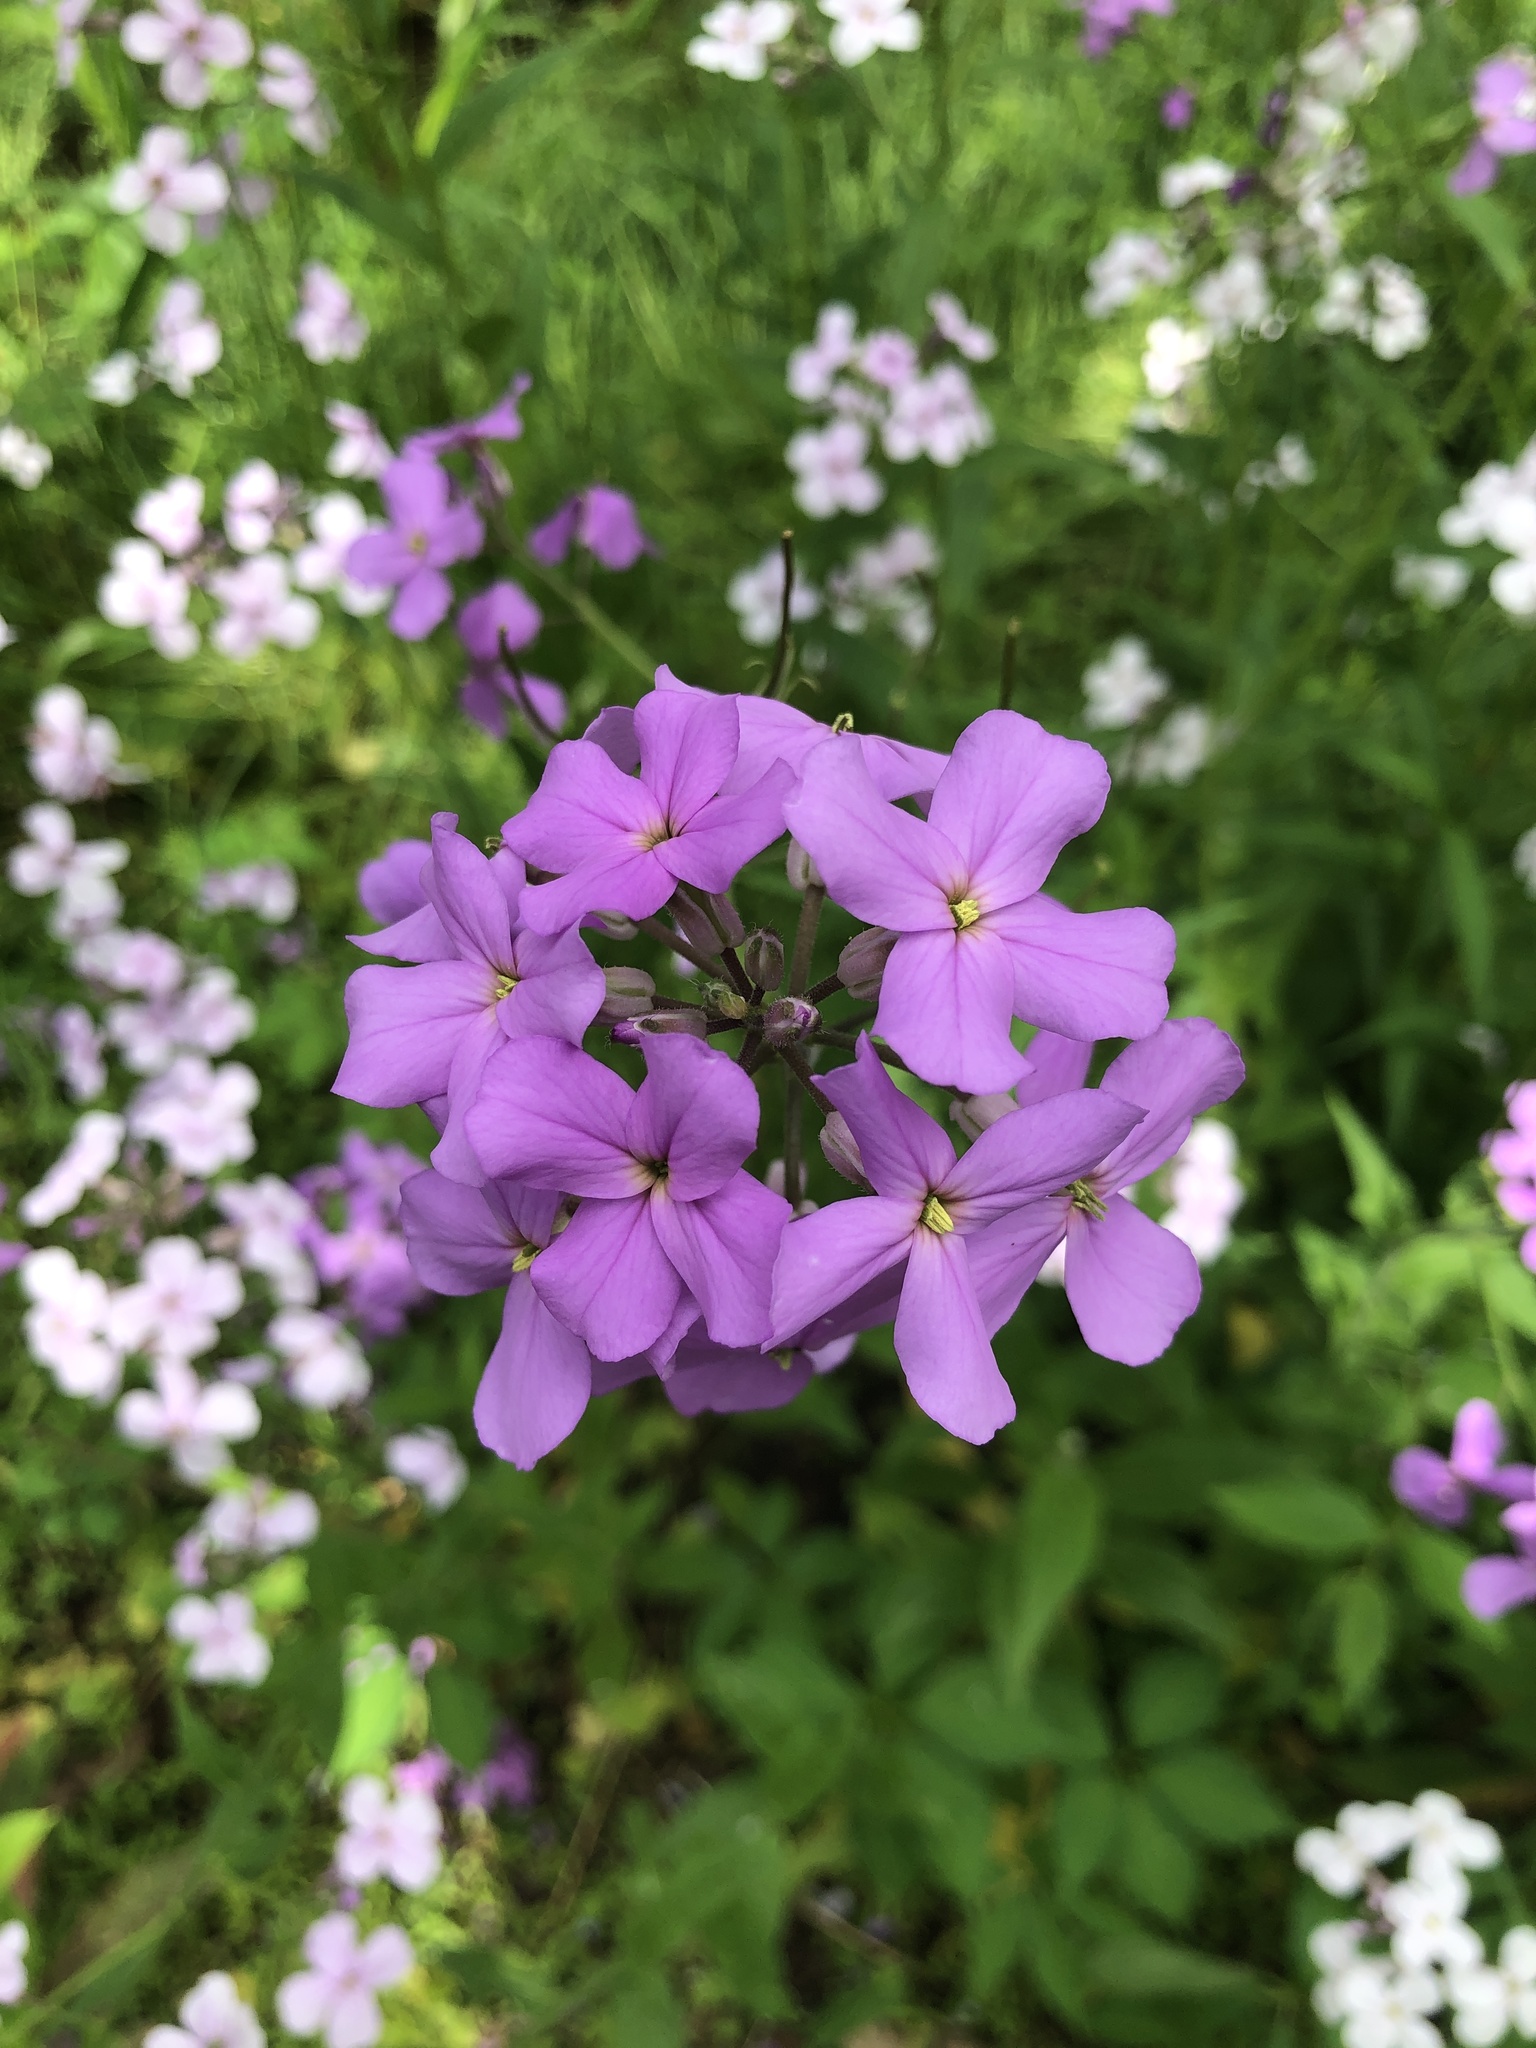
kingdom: Plantae
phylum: Tracheophyta
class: Magnoliopsida
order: Brassicales
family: Brassicaceae
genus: Hesperis
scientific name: Hesperis matronalis
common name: Dame's-violet
